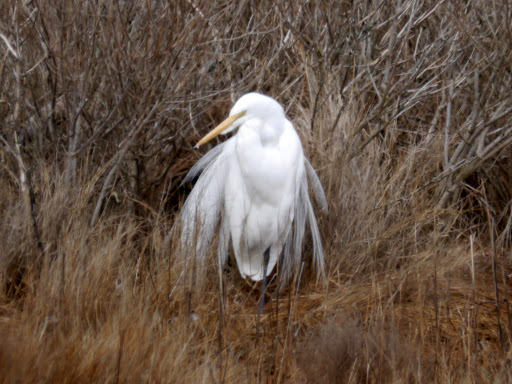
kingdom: Animalia
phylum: Chordata
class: Aves
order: Pelecaniformes
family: Ardeidae
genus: Ardea
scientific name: Ardea alba
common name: Great egret
